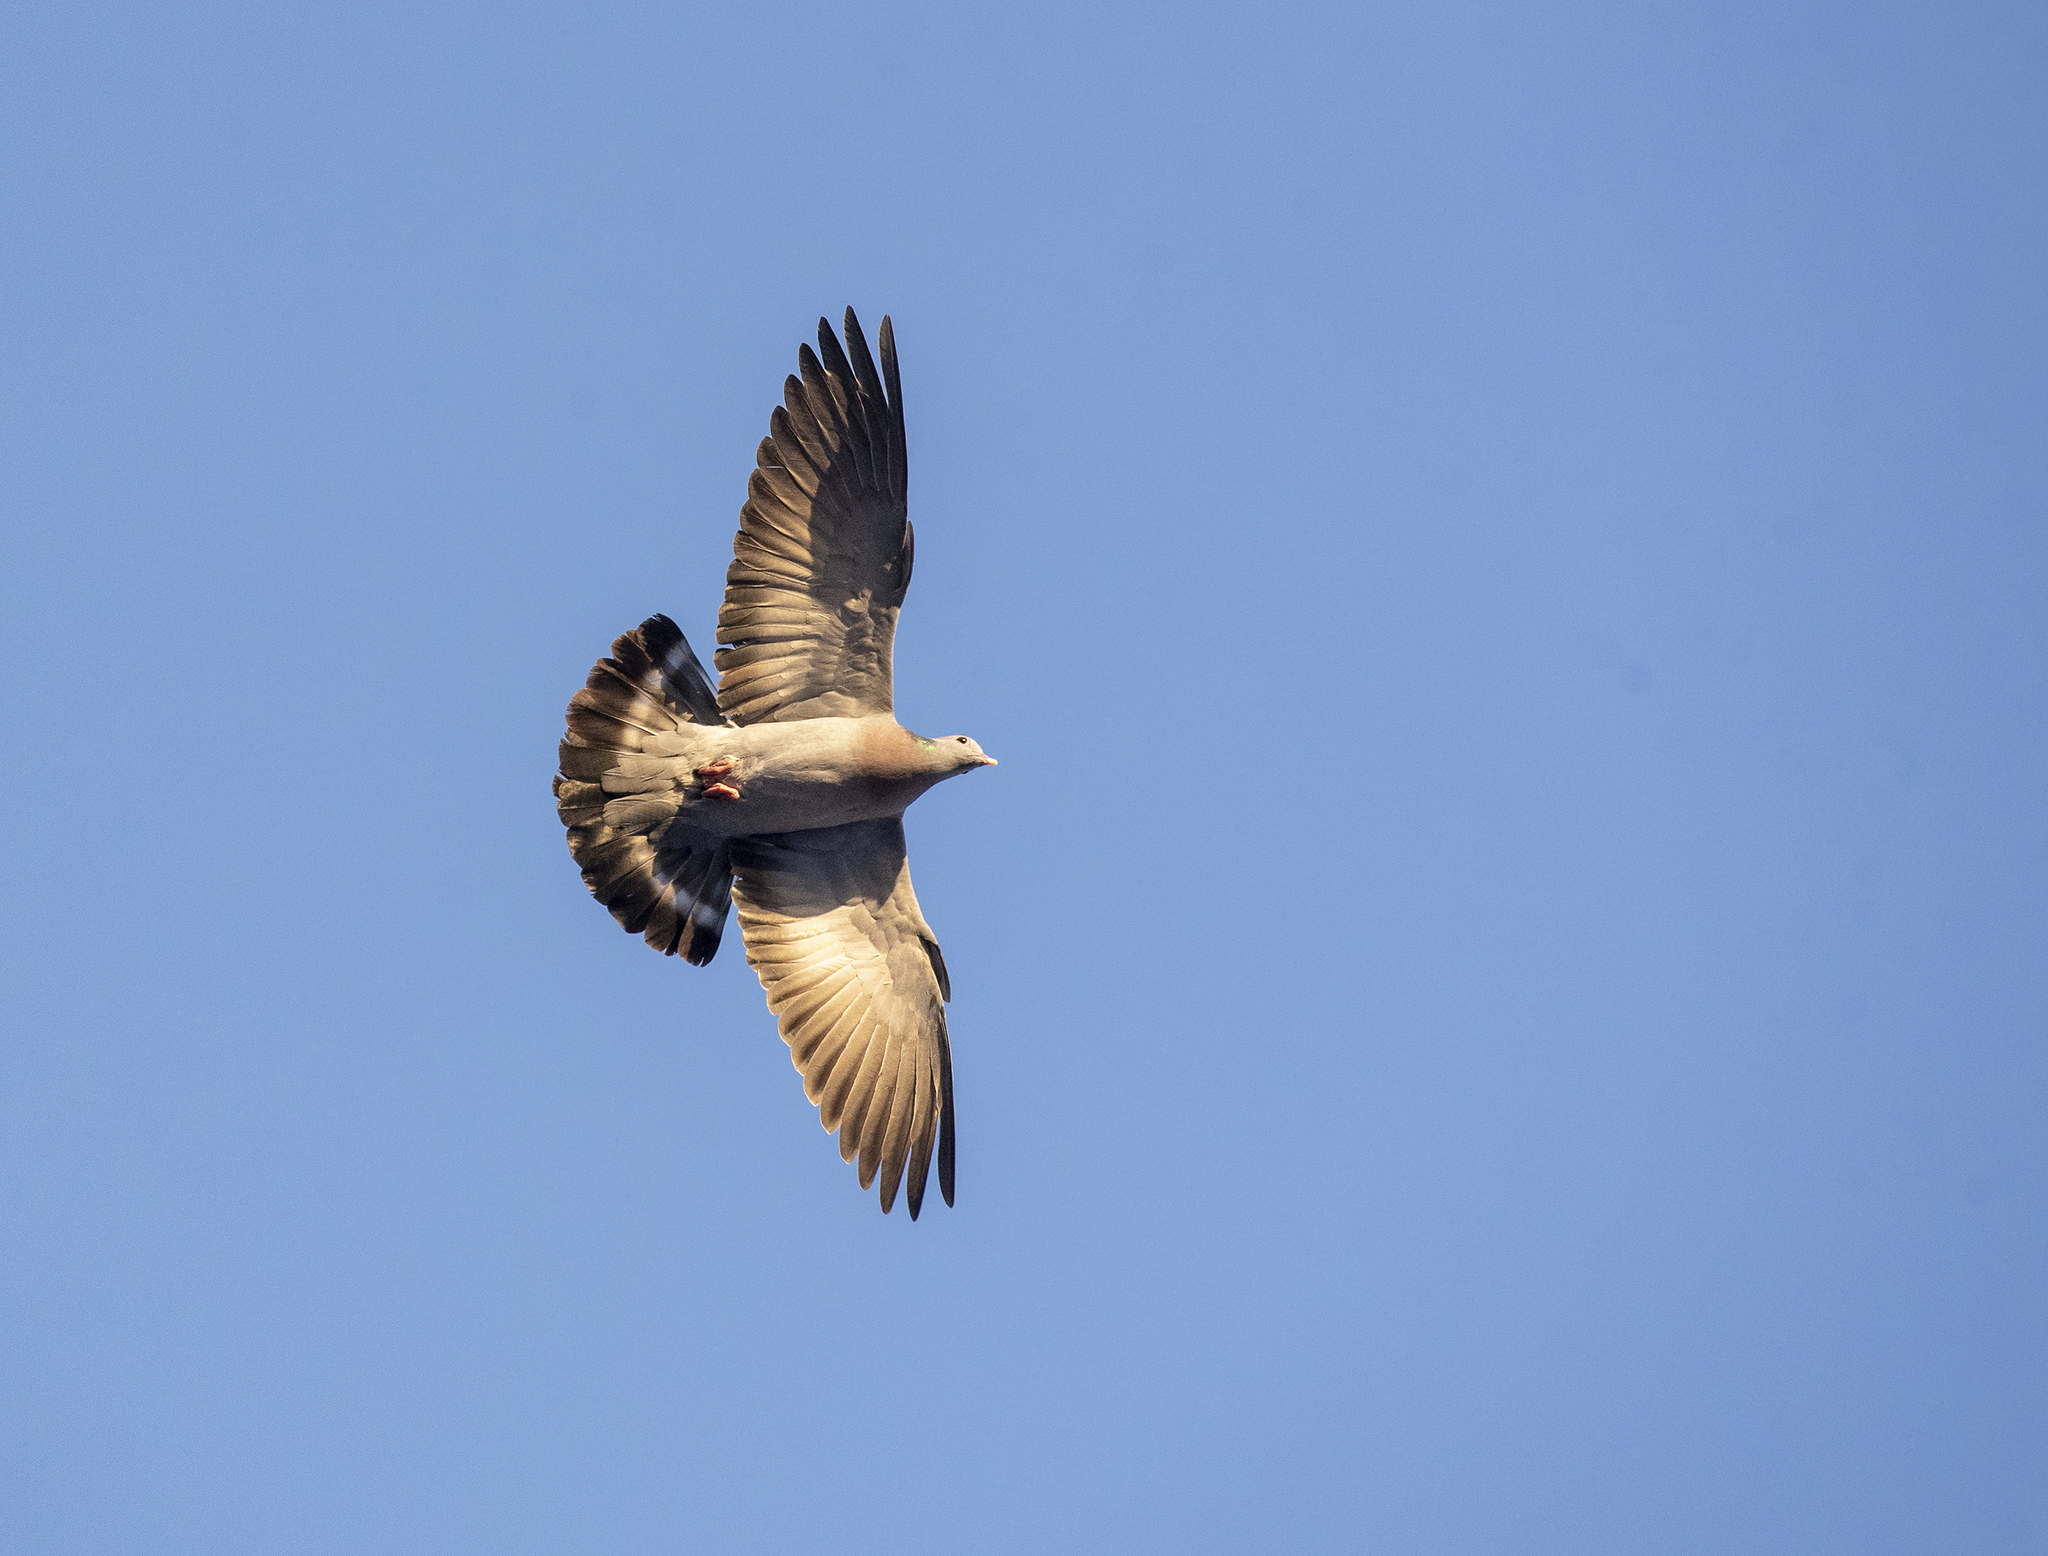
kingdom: Animalia
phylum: Chordata
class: Aves
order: Columbiformes
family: Columbidae
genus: Columba
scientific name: Columba oenas
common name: Stock dove
